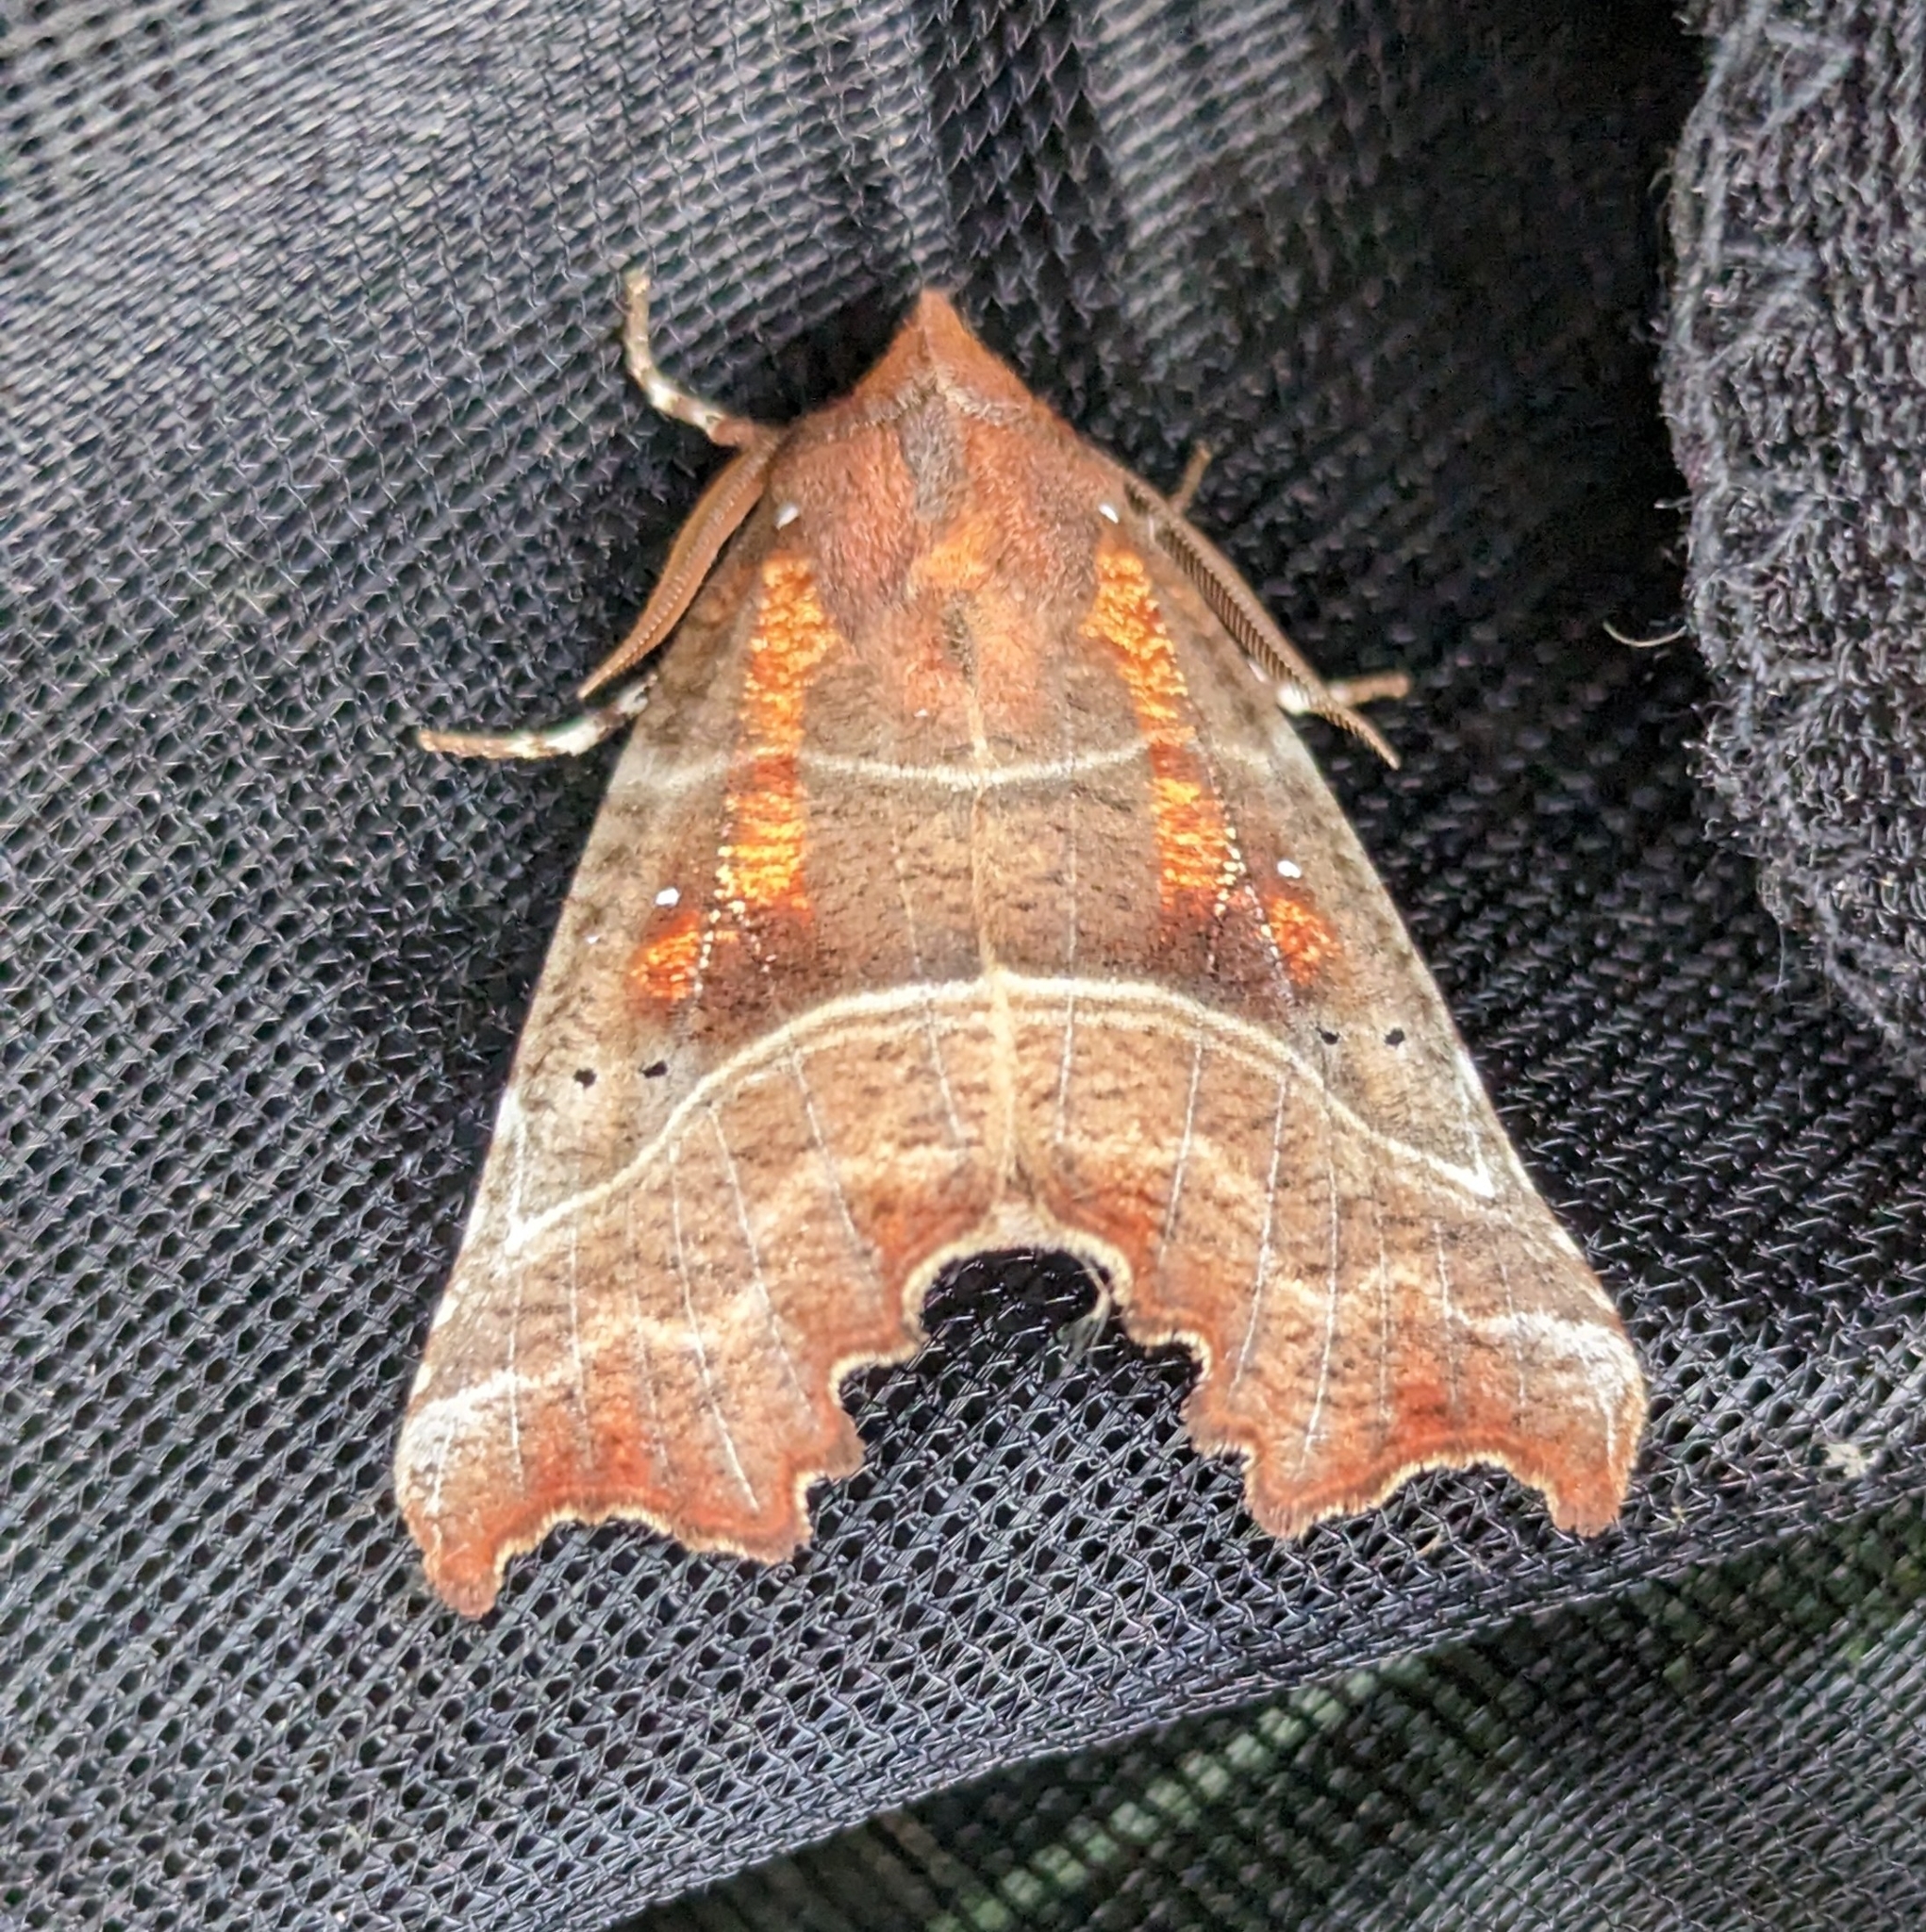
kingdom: Animalia
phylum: Arthropoda
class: Insecta
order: Lepidoptera
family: Erebidae
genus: Scoliopteryx
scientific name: Scoliopteryx libatrix
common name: Herald
